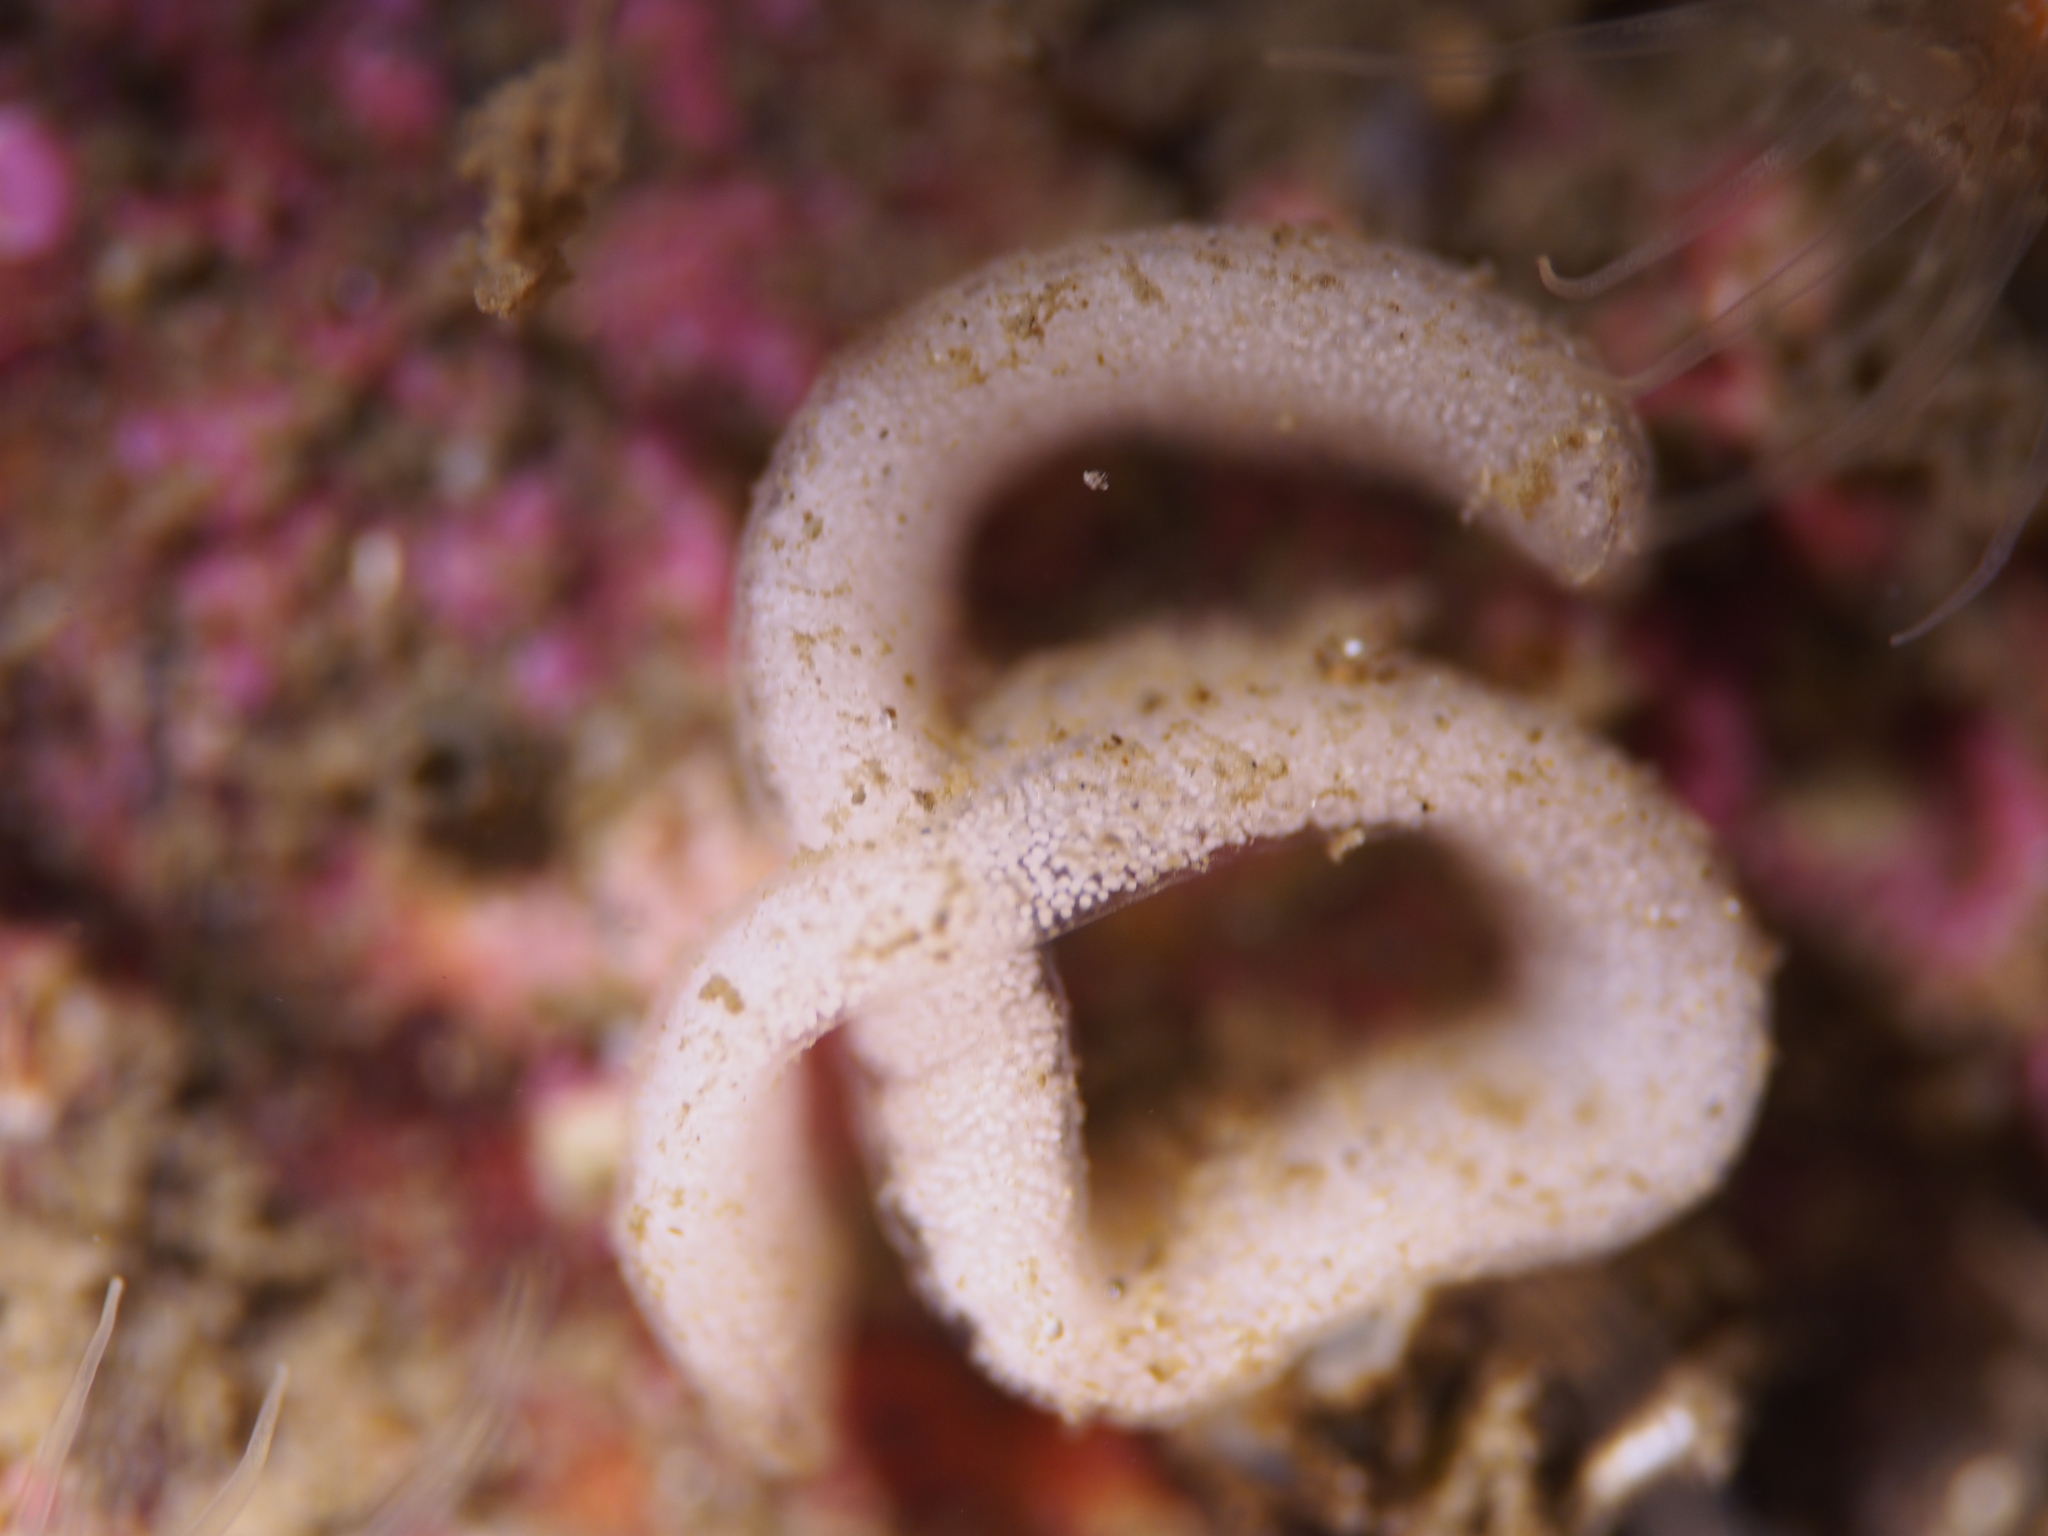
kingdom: Animalia
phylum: Mollusca
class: Gastropoda
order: Nudibranchia
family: Goniodorididae
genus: Pelagella
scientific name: Pelagella castanea
